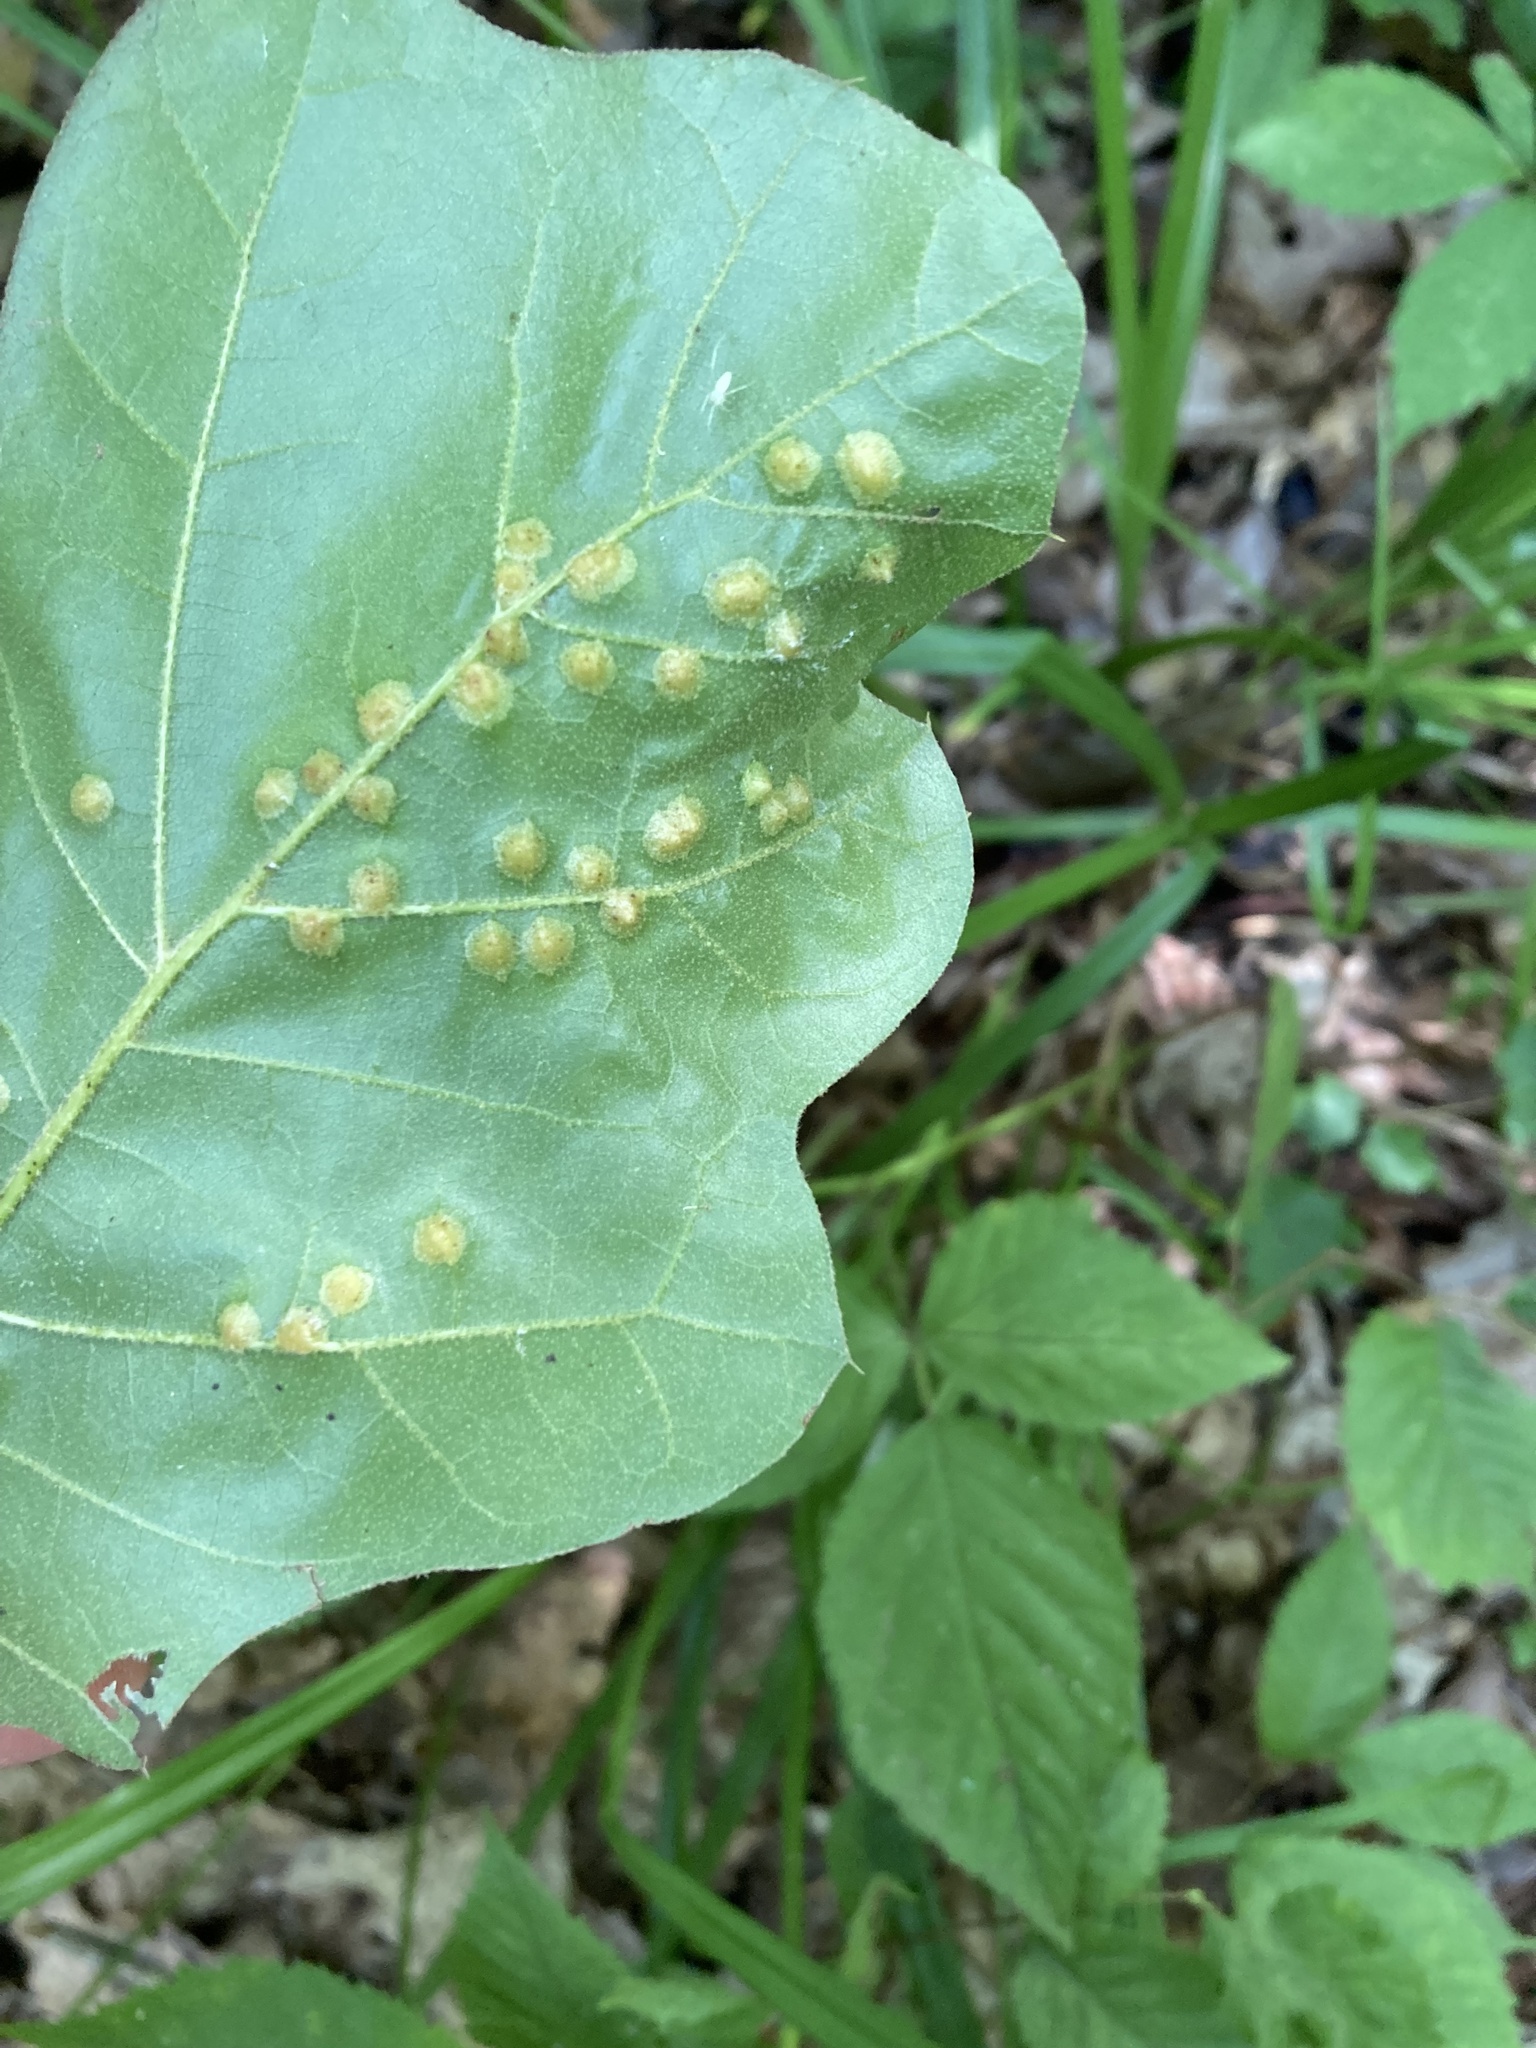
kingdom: Animalia
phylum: Arthropoda
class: Insecta
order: Diptera
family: Cecidomyiidae
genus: Polystepha
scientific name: Polystepha pilulae
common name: Oak leaf gall midge
